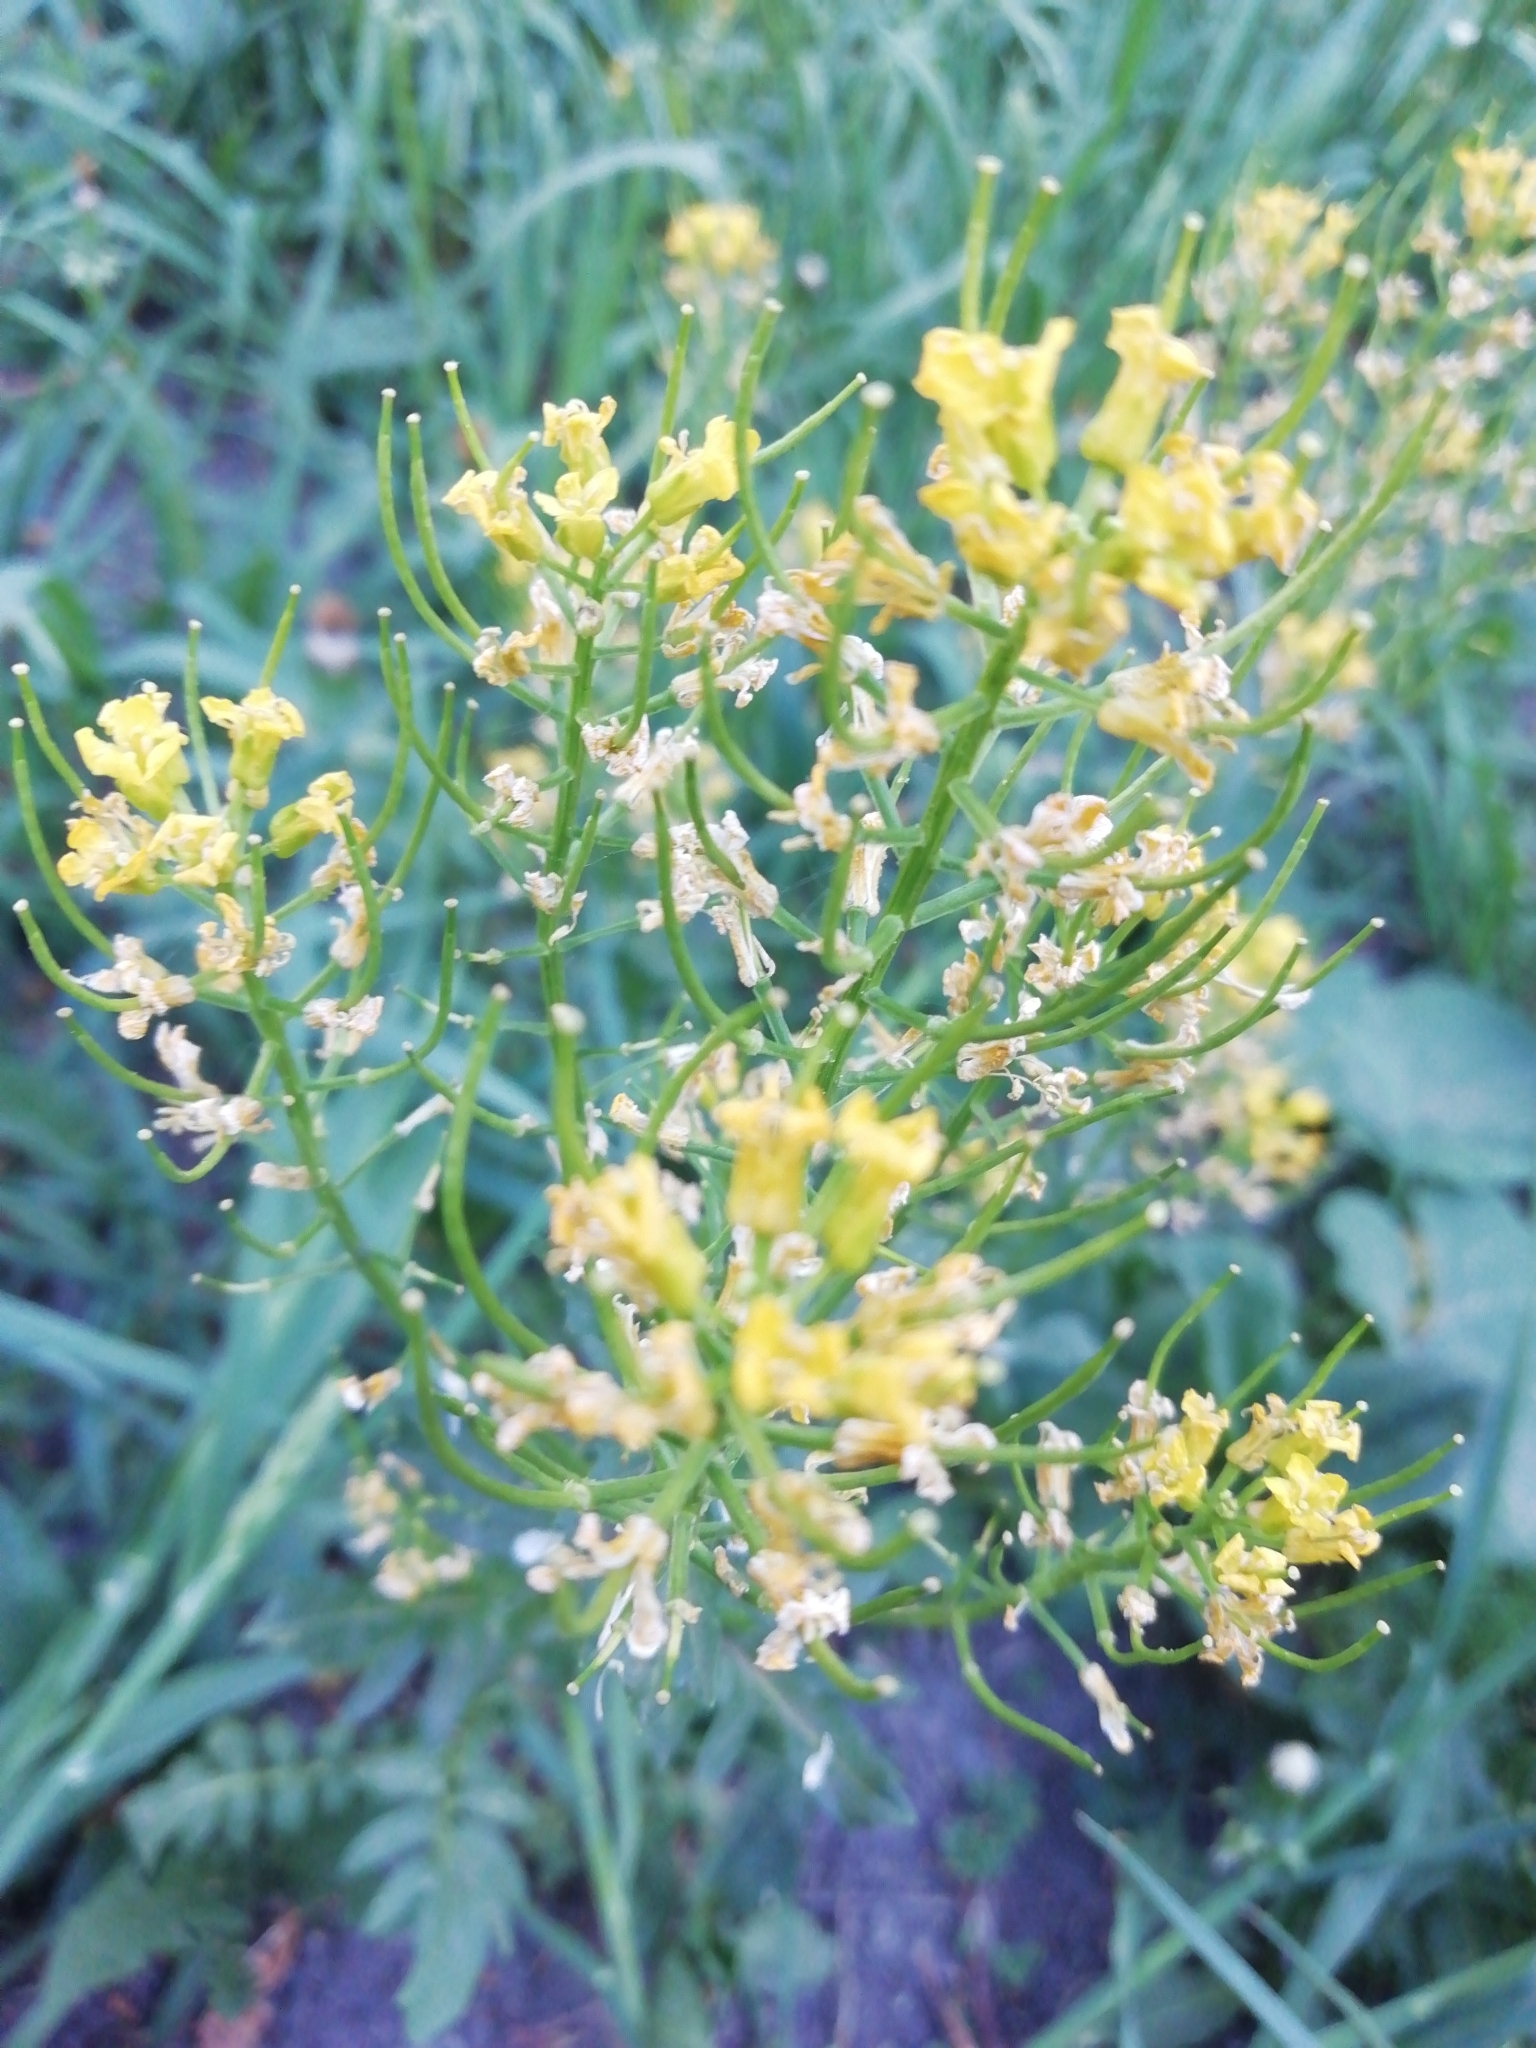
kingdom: Plantae
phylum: Tracheophyta
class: Magnoliopsida
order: Brassicales
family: Brassicaceae
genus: Barbarea
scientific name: Barbarea vulgaris
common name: Cressy-greens
